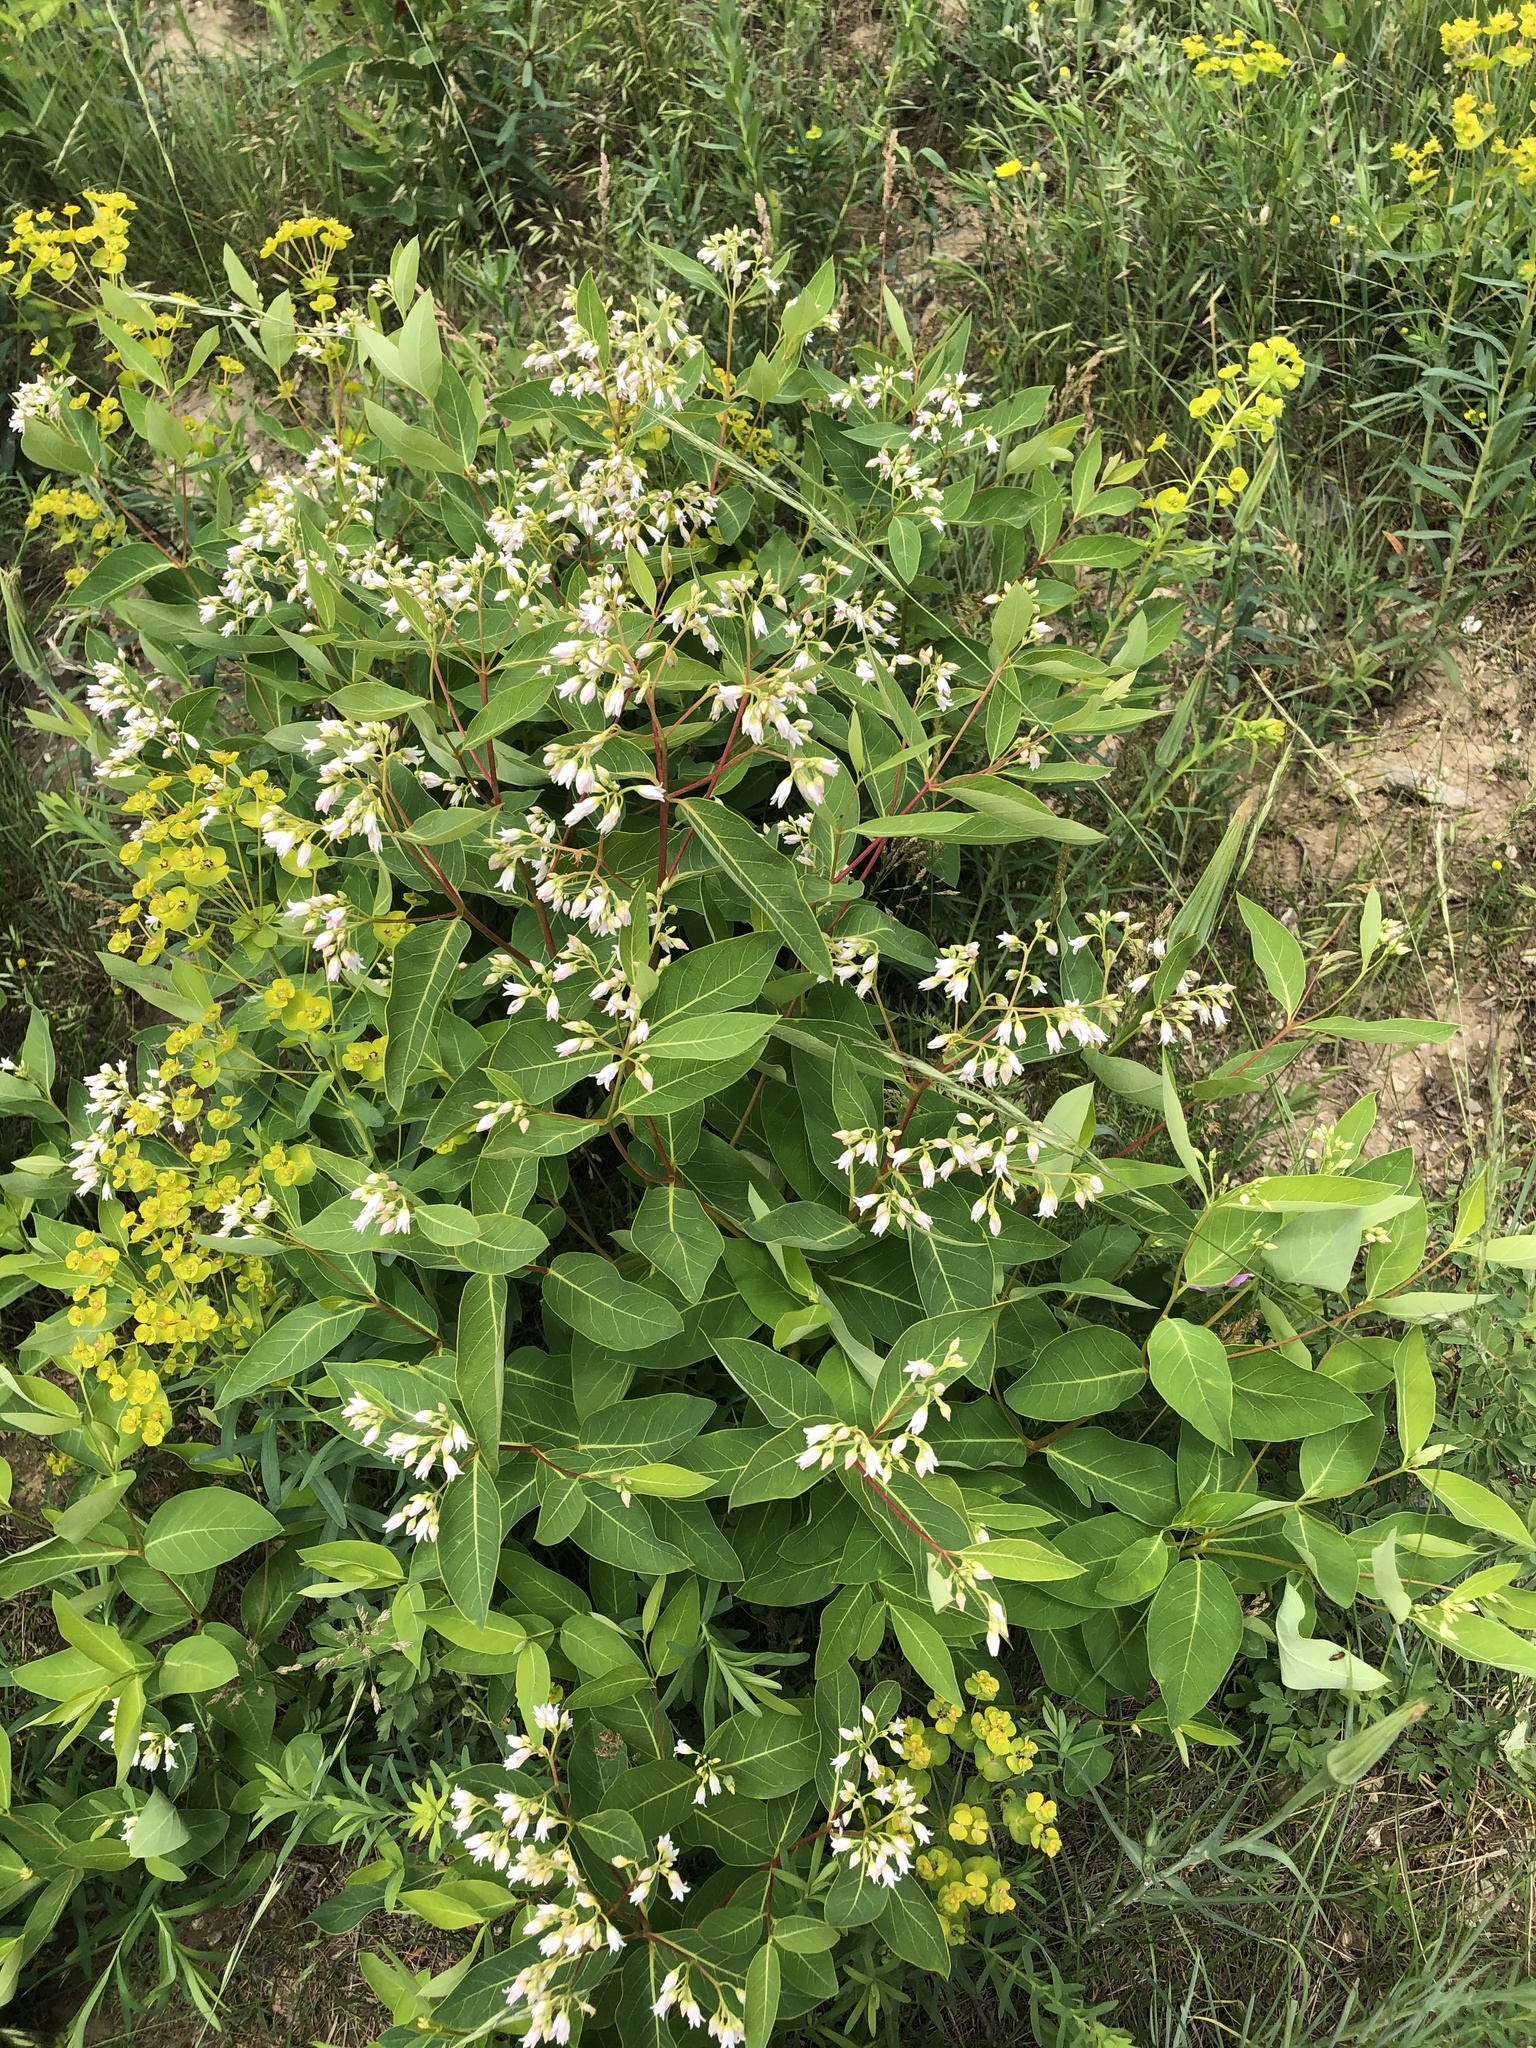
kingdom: Plantae
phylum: Tracheophyta
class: Magnoliopsida
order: Gentianales
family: Apocynaceae
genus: Apocynum
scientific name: Apocynum androsaemifolium
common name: Spreading dogbane
